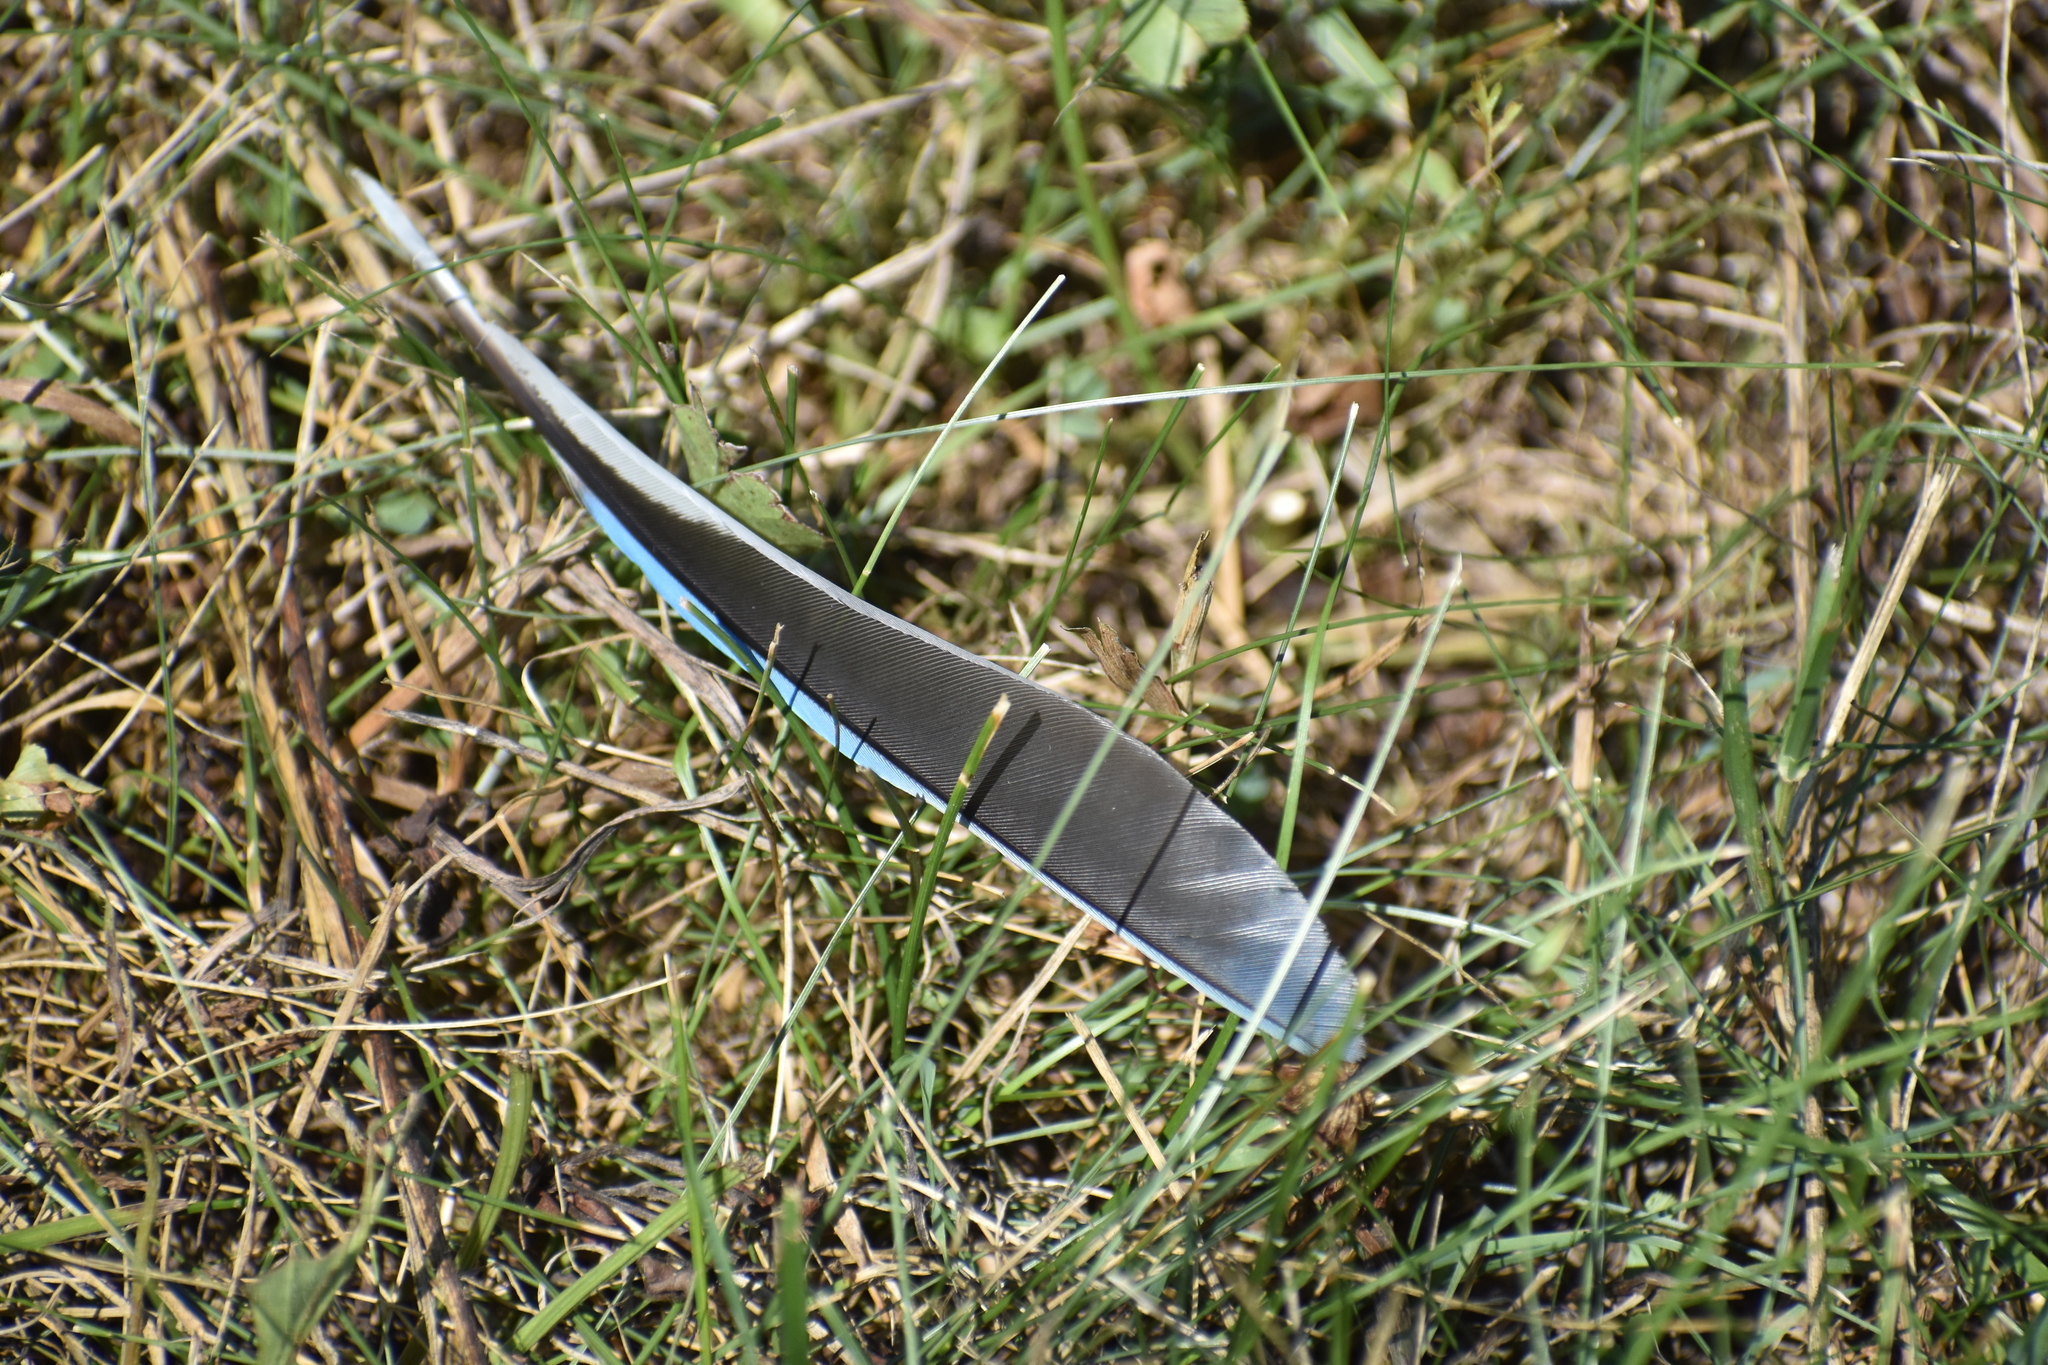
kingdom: Animalia
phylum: Chordata
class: Aves
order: Passeriformes
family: Corvidae
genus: Cyanocitta
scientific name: Cyanocitta cristata
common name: Blue jay
